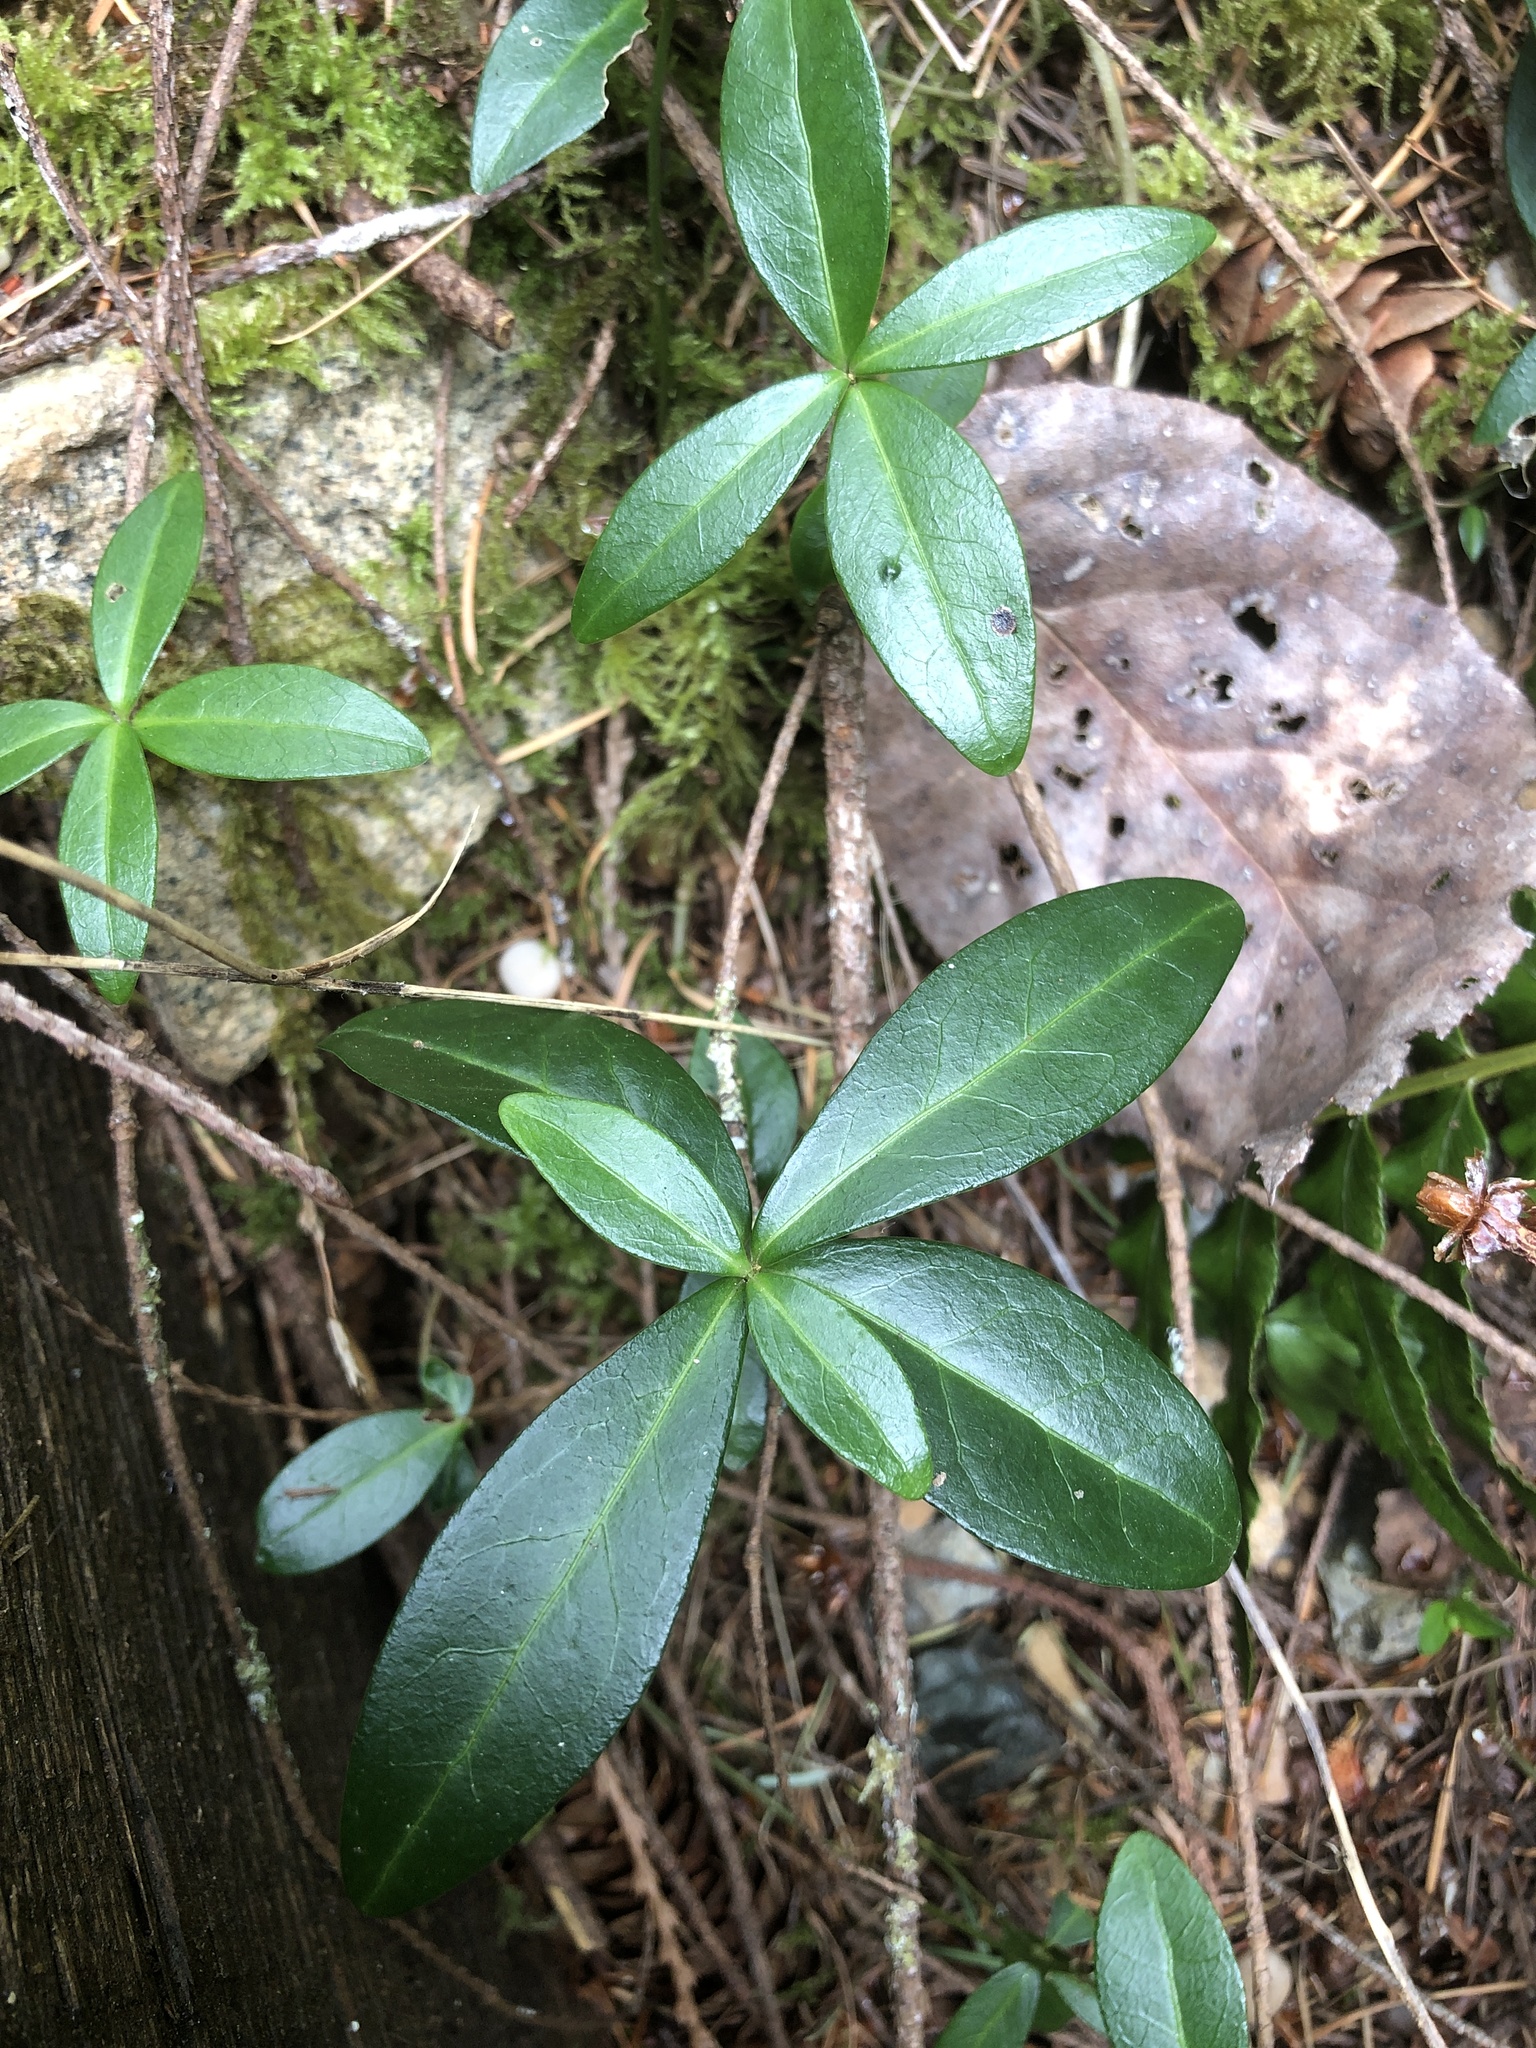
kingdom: Plantae
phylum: Tracheophyta
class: Magnoliopsida
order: Gentianales
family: Apocynaceae
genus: Vinca
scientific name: Vinca minor
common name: Lesser periwinkle
